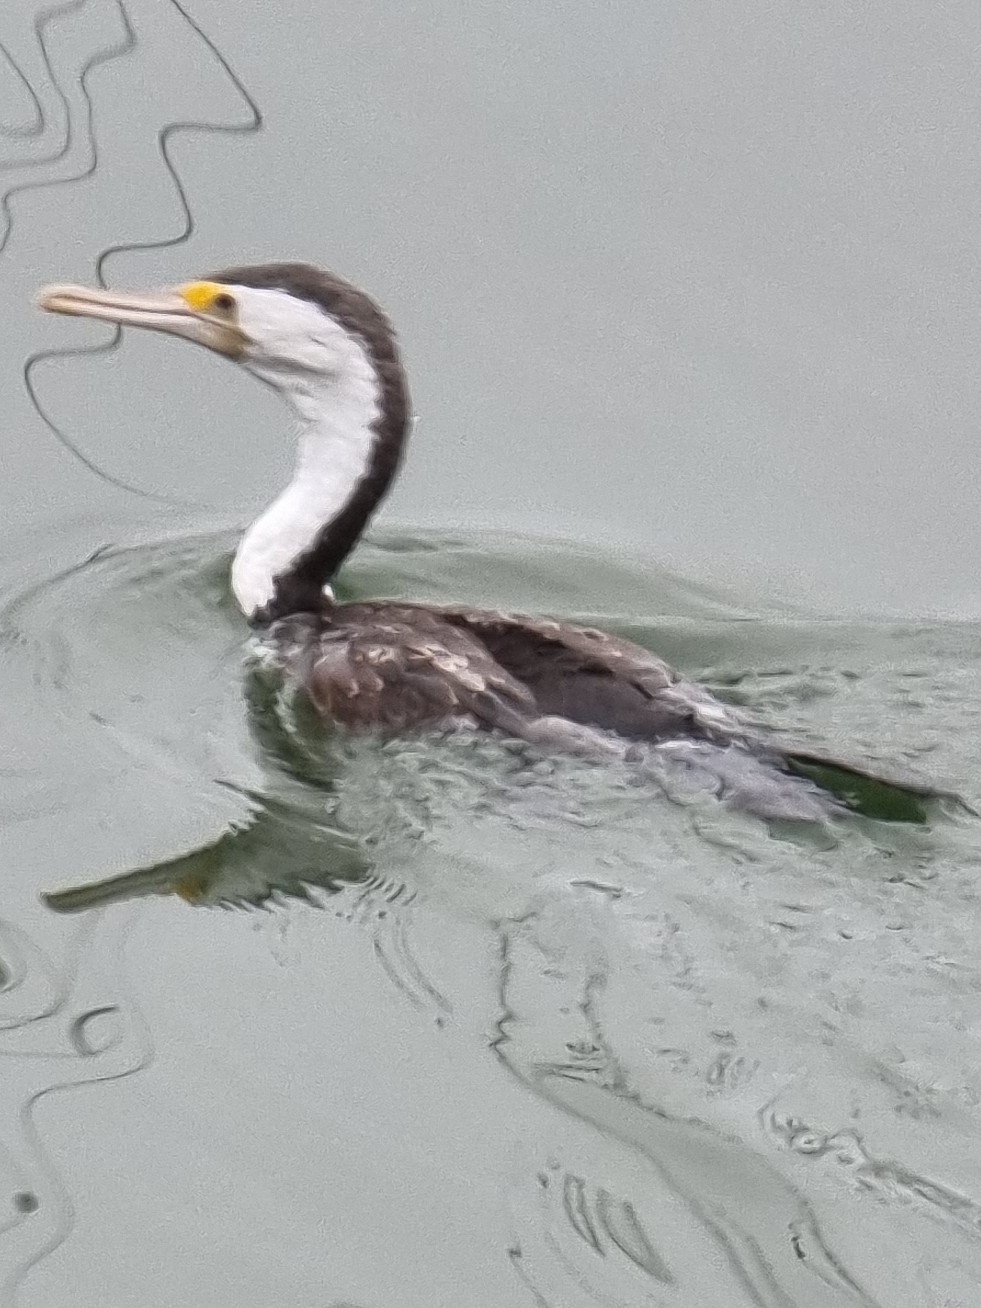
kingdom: Animalia
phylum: Chordata
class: Aves
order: Suliformes
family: Phalacrocoracidae
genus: Phalacrocorax
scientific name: Phalacrocorax varius
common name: Pied cormorant
